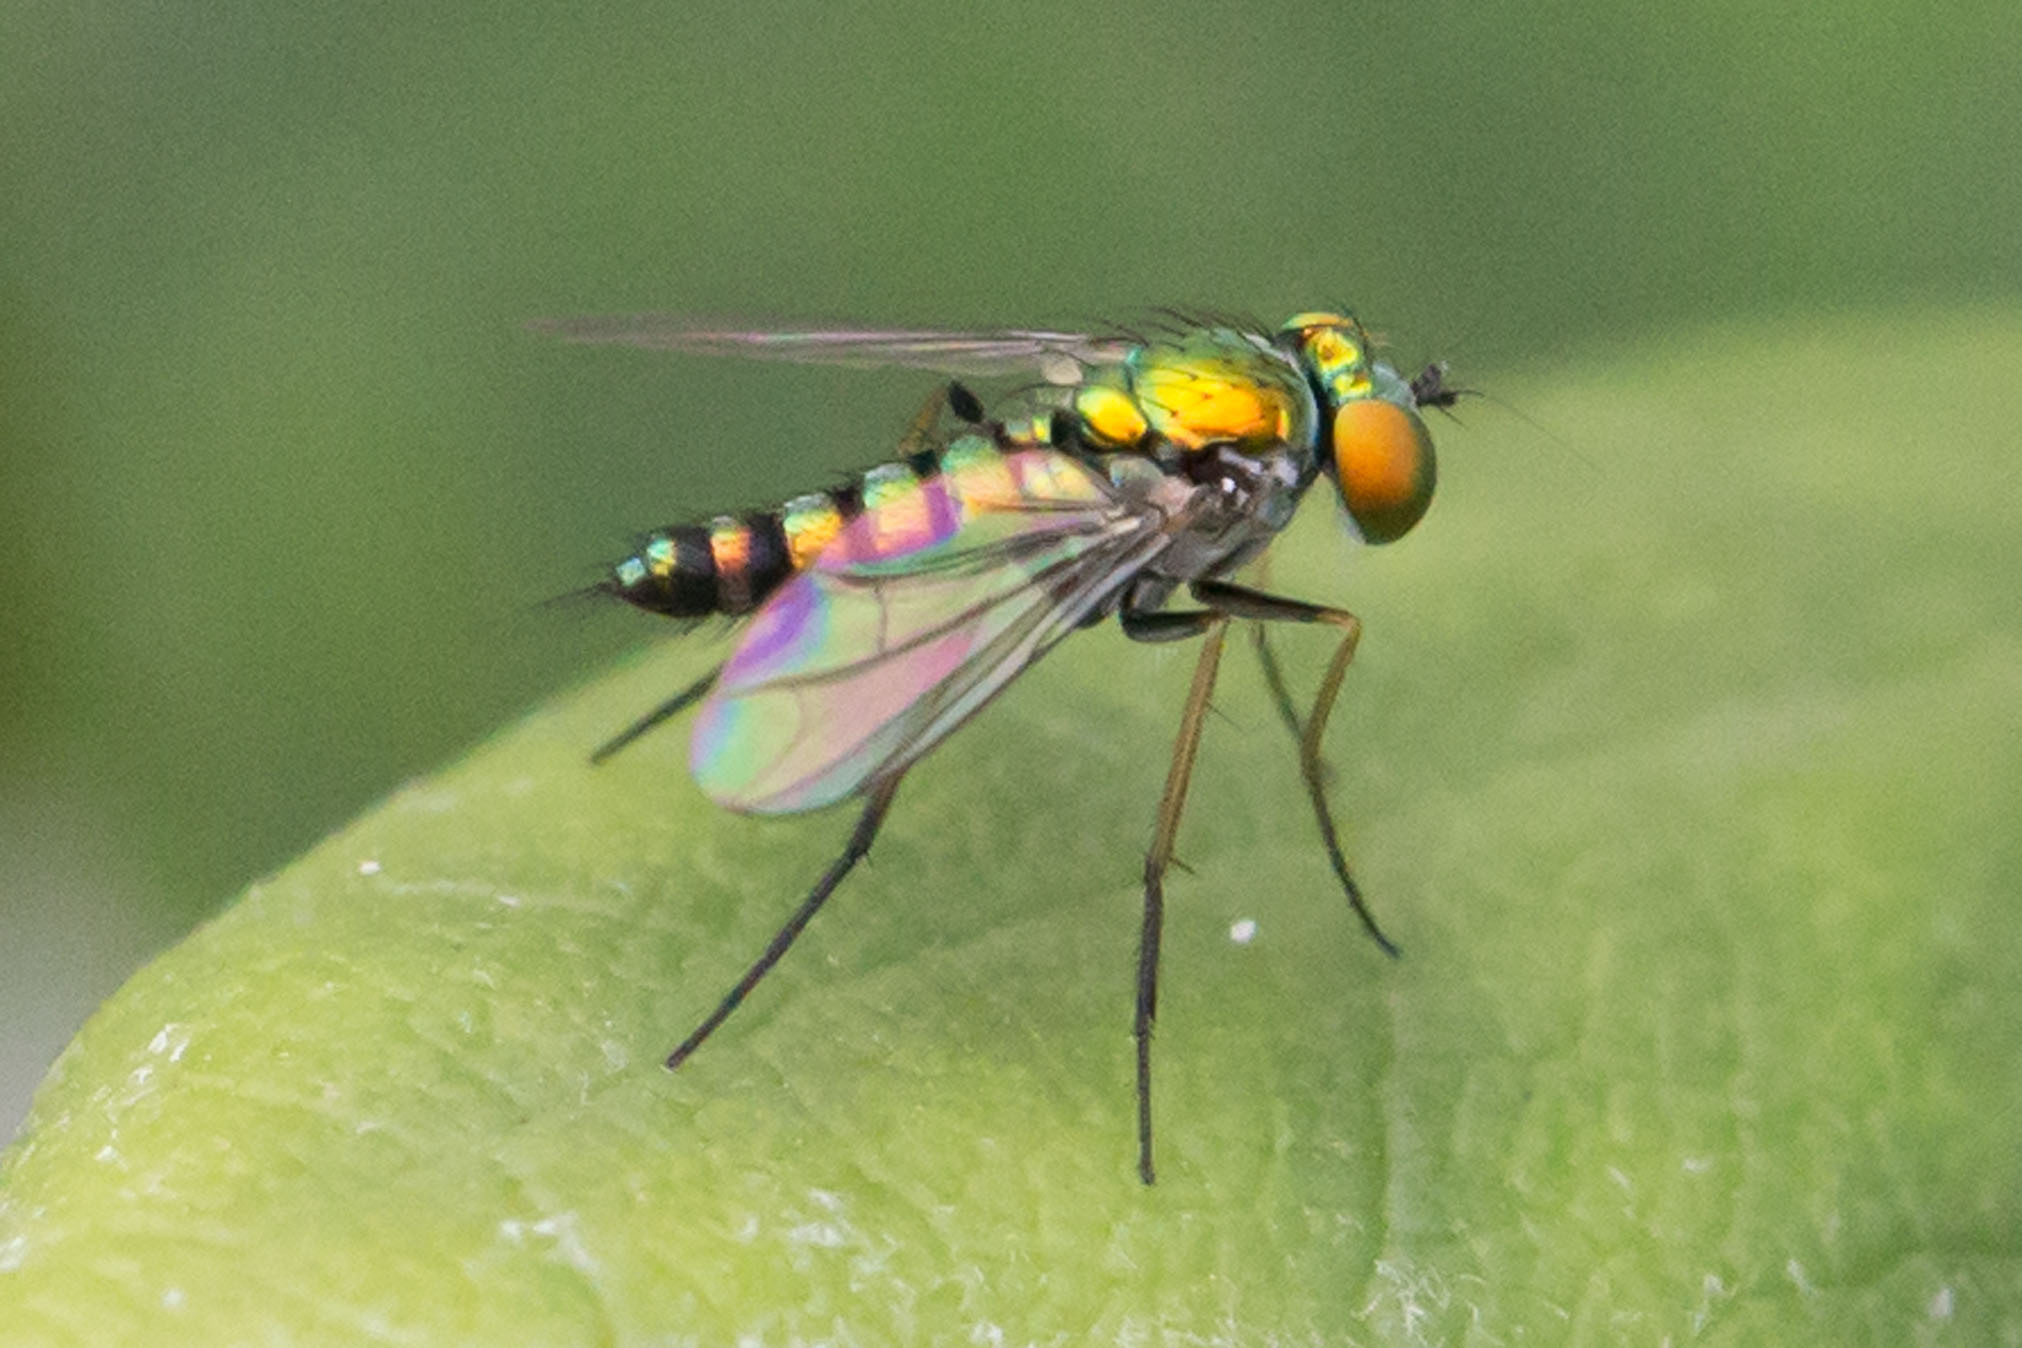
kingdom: Animalia
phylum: Arthropoda
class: Insecta
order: Diptera
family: Dolichopodidae
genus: Condylostylus
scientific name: Condylostylus caudatus
